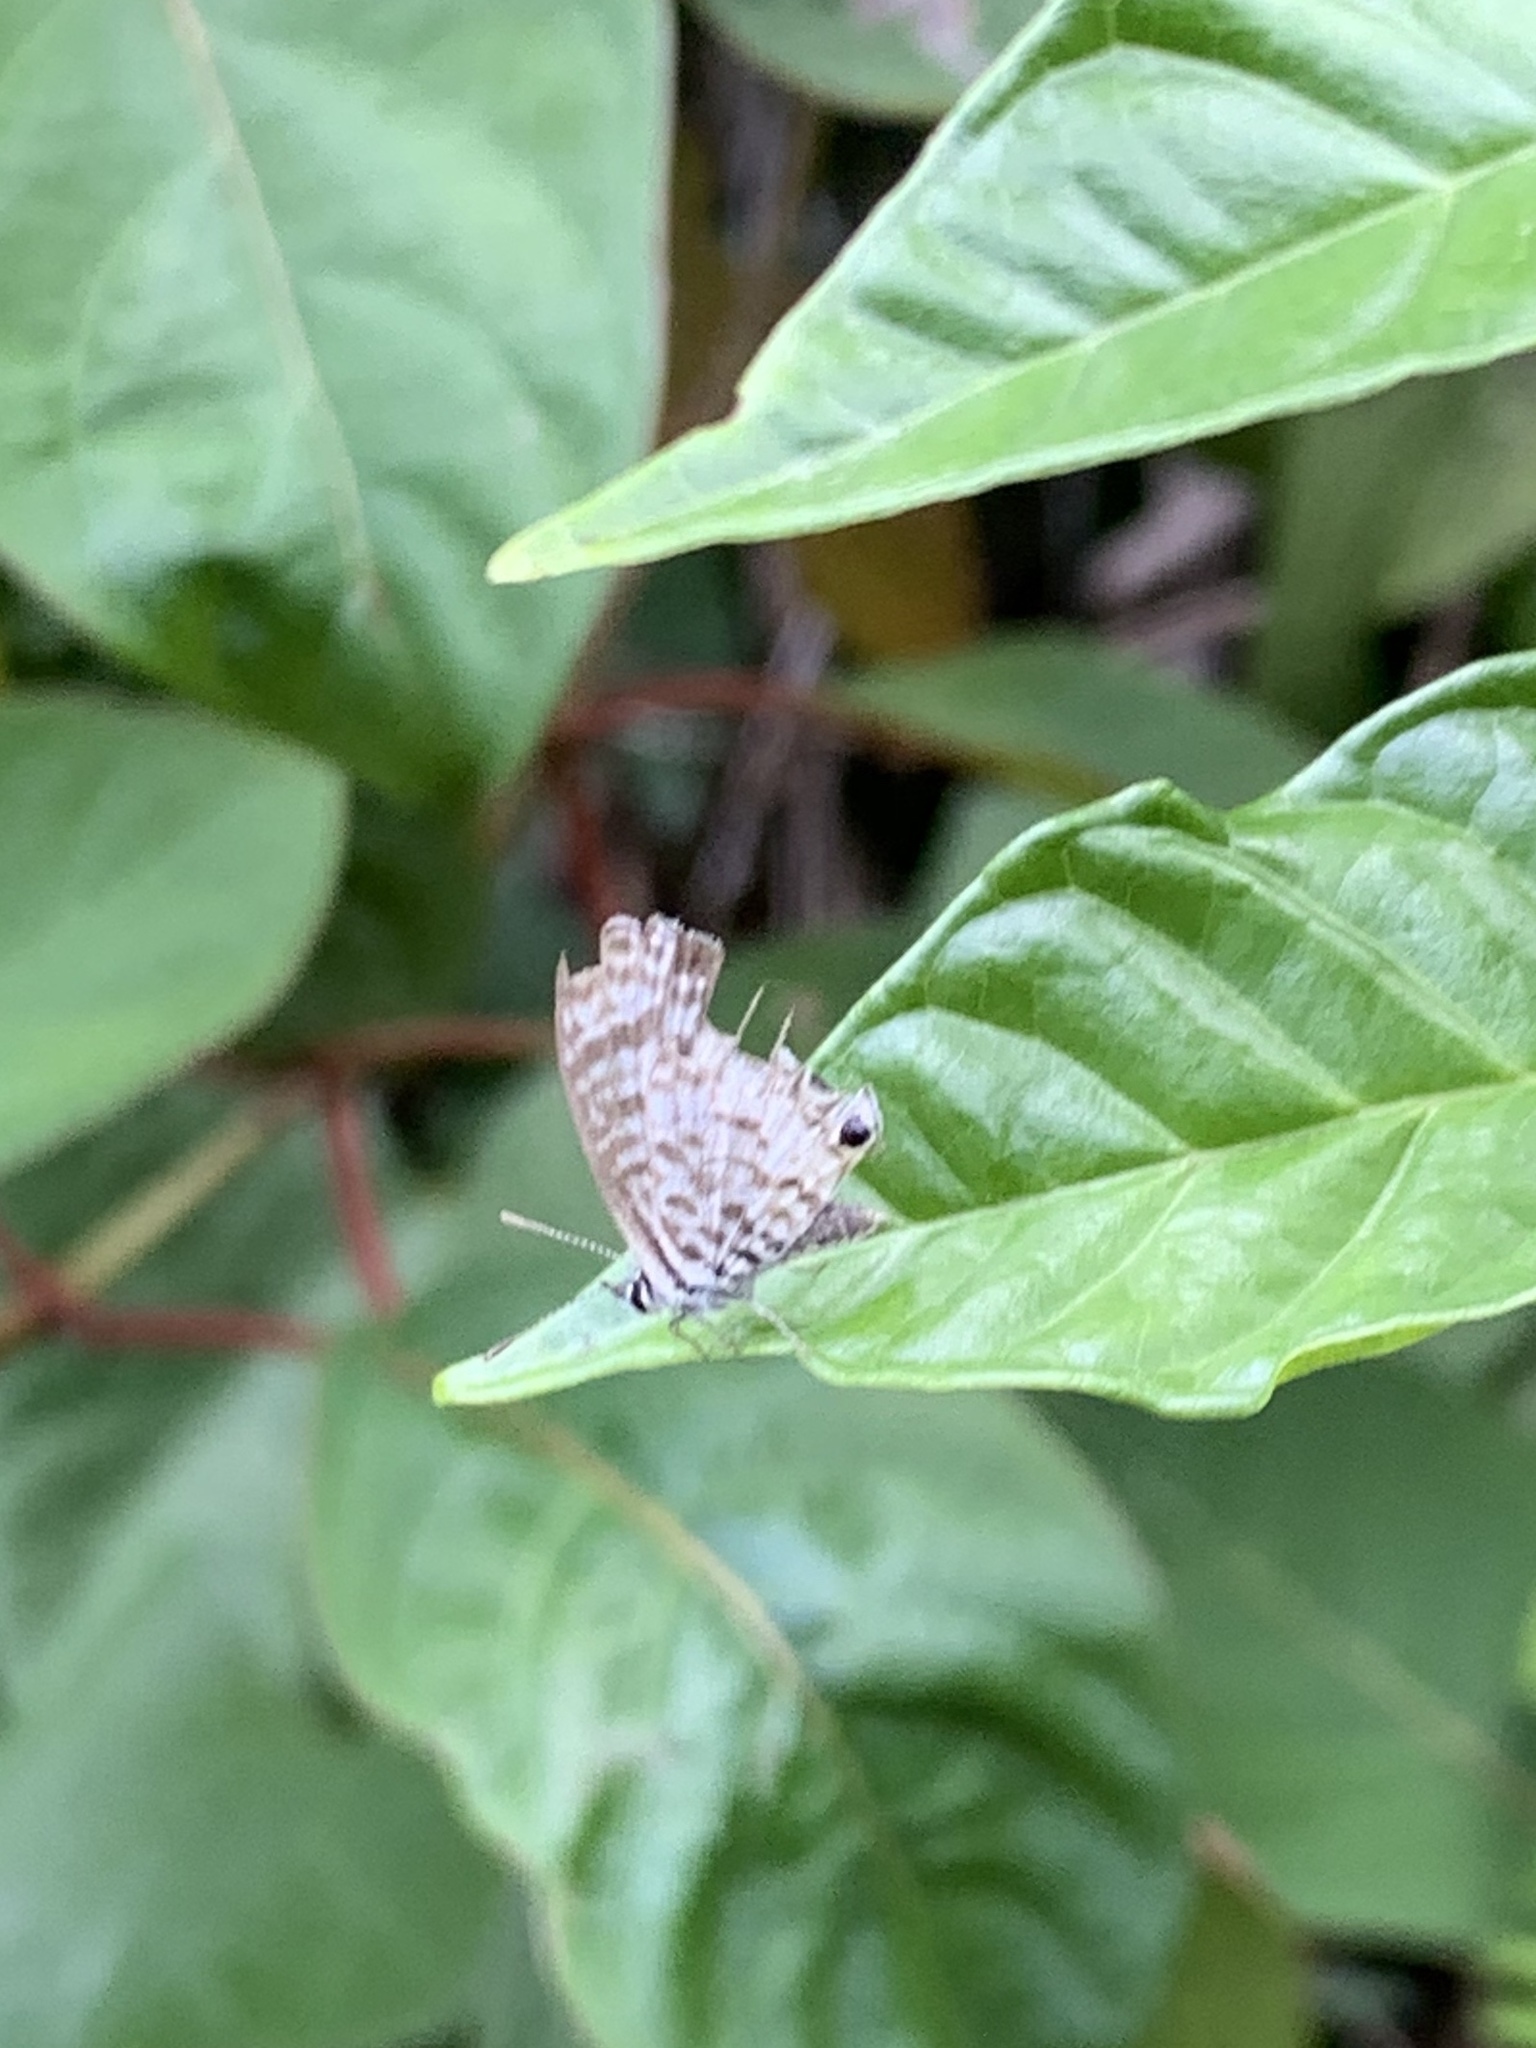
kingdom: Animalia
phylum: Arthropoda
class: Insecta
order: Lepidoptera
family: Lycaenidae
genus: Leptotes
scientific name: Leptotes cassius
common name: Cassius blue
